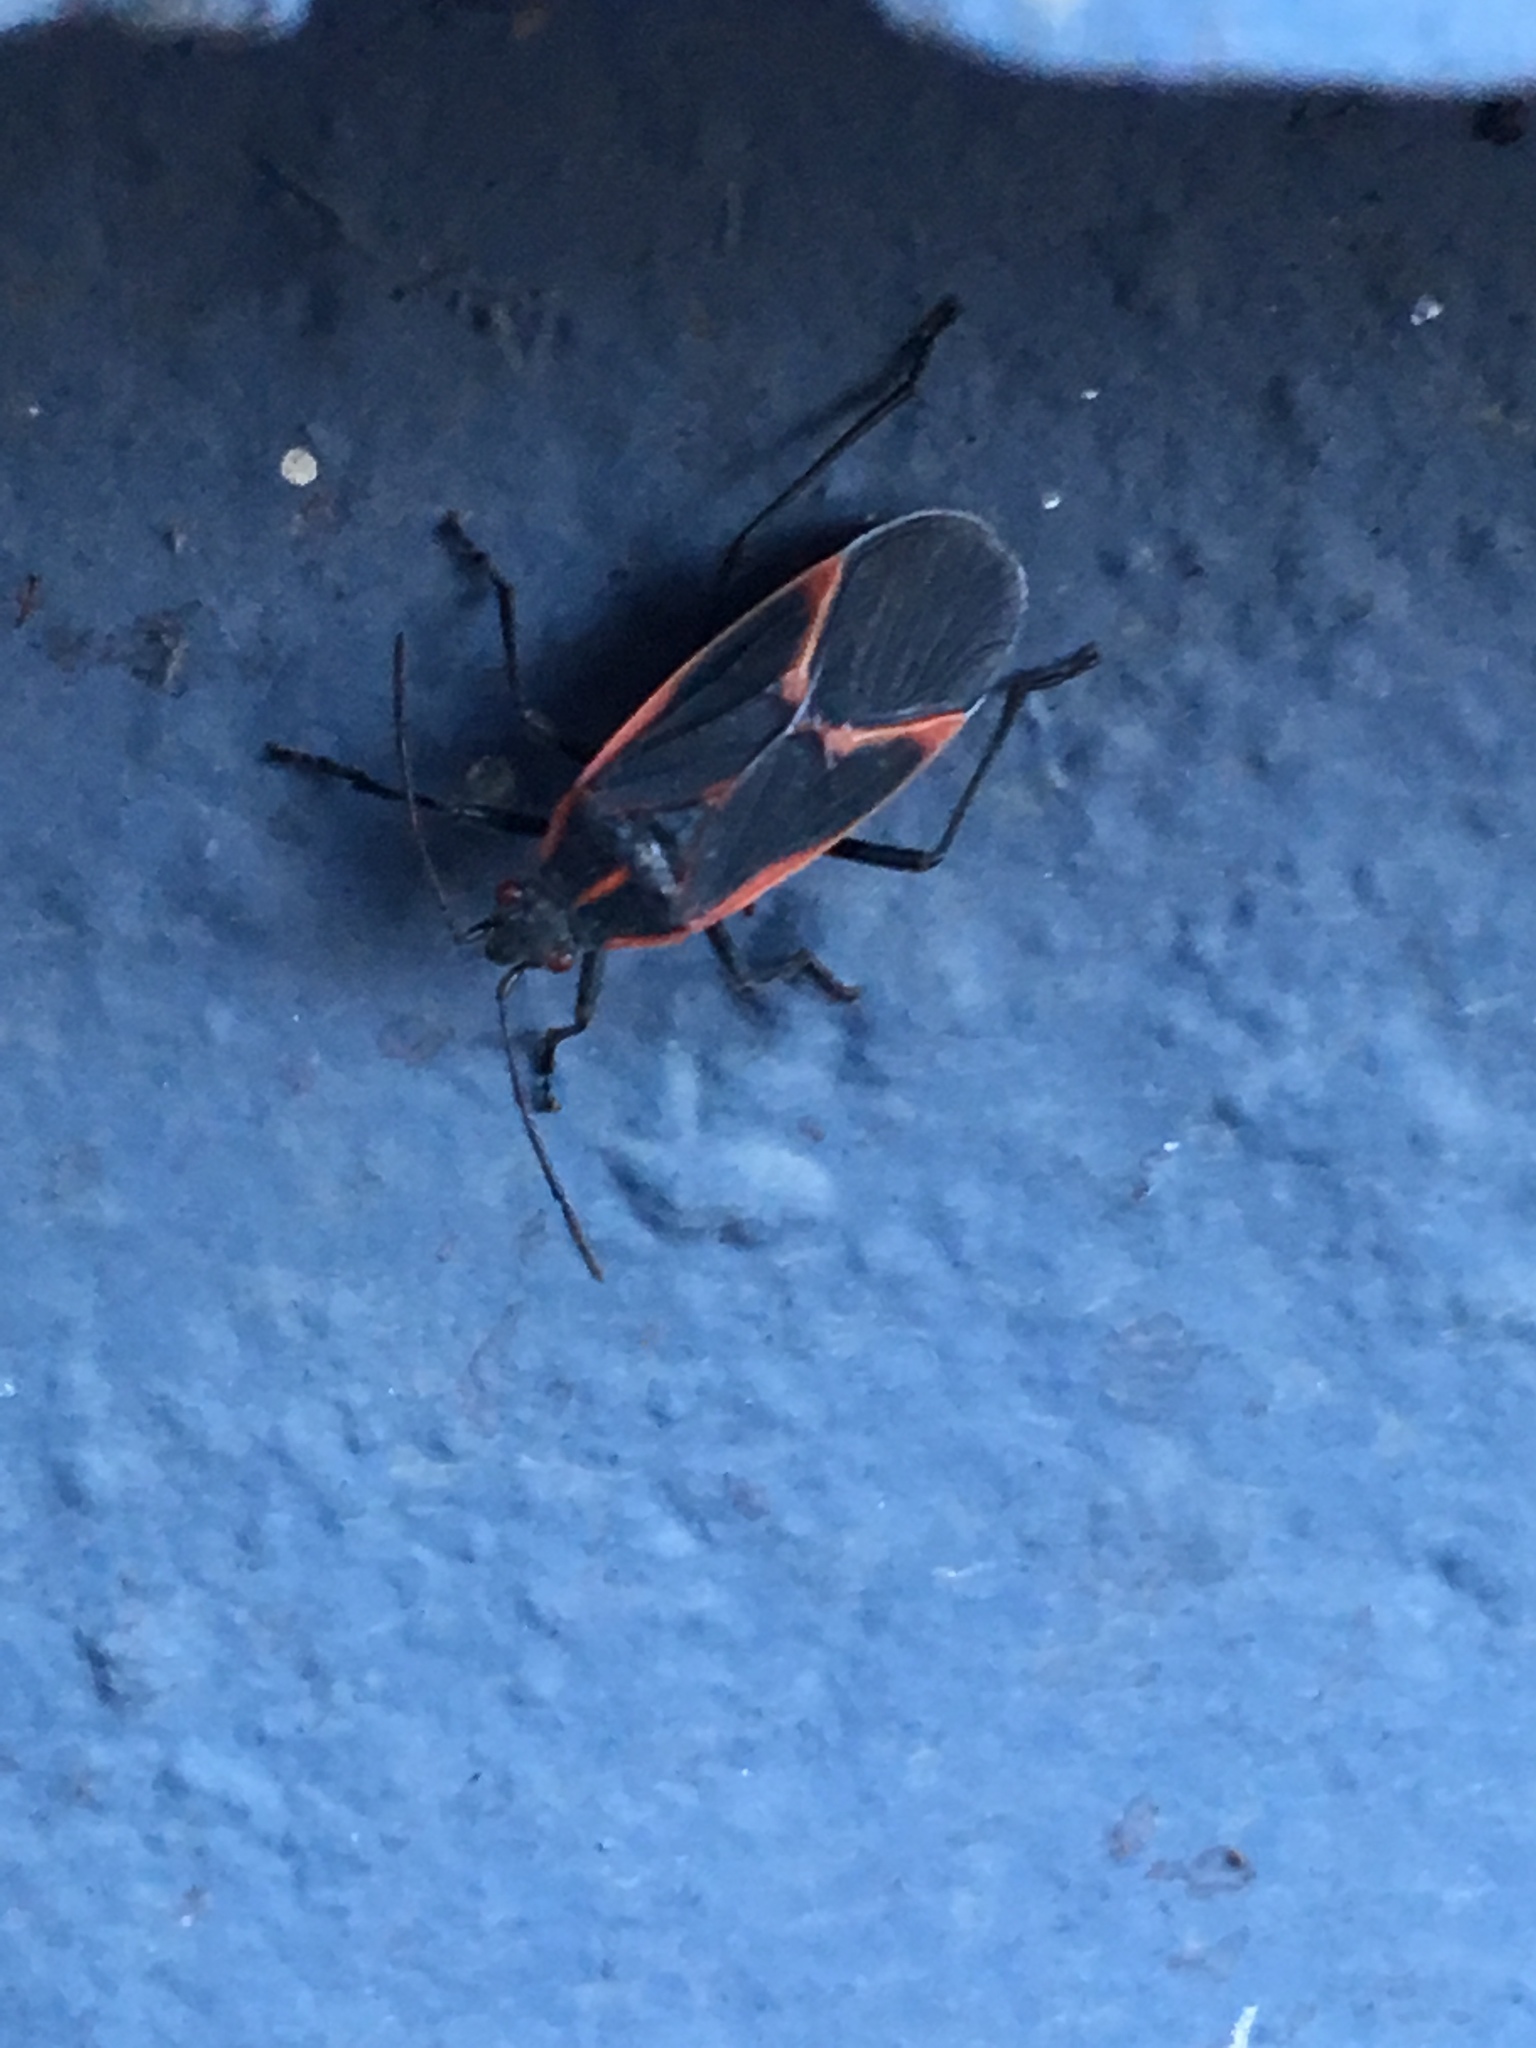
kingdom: Animalia
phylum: Arthropoda
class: Insecta
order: Hemiptera
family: Rhopalidae
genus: Boisea
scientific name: Boisea trivittata
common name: Boxelder bug
